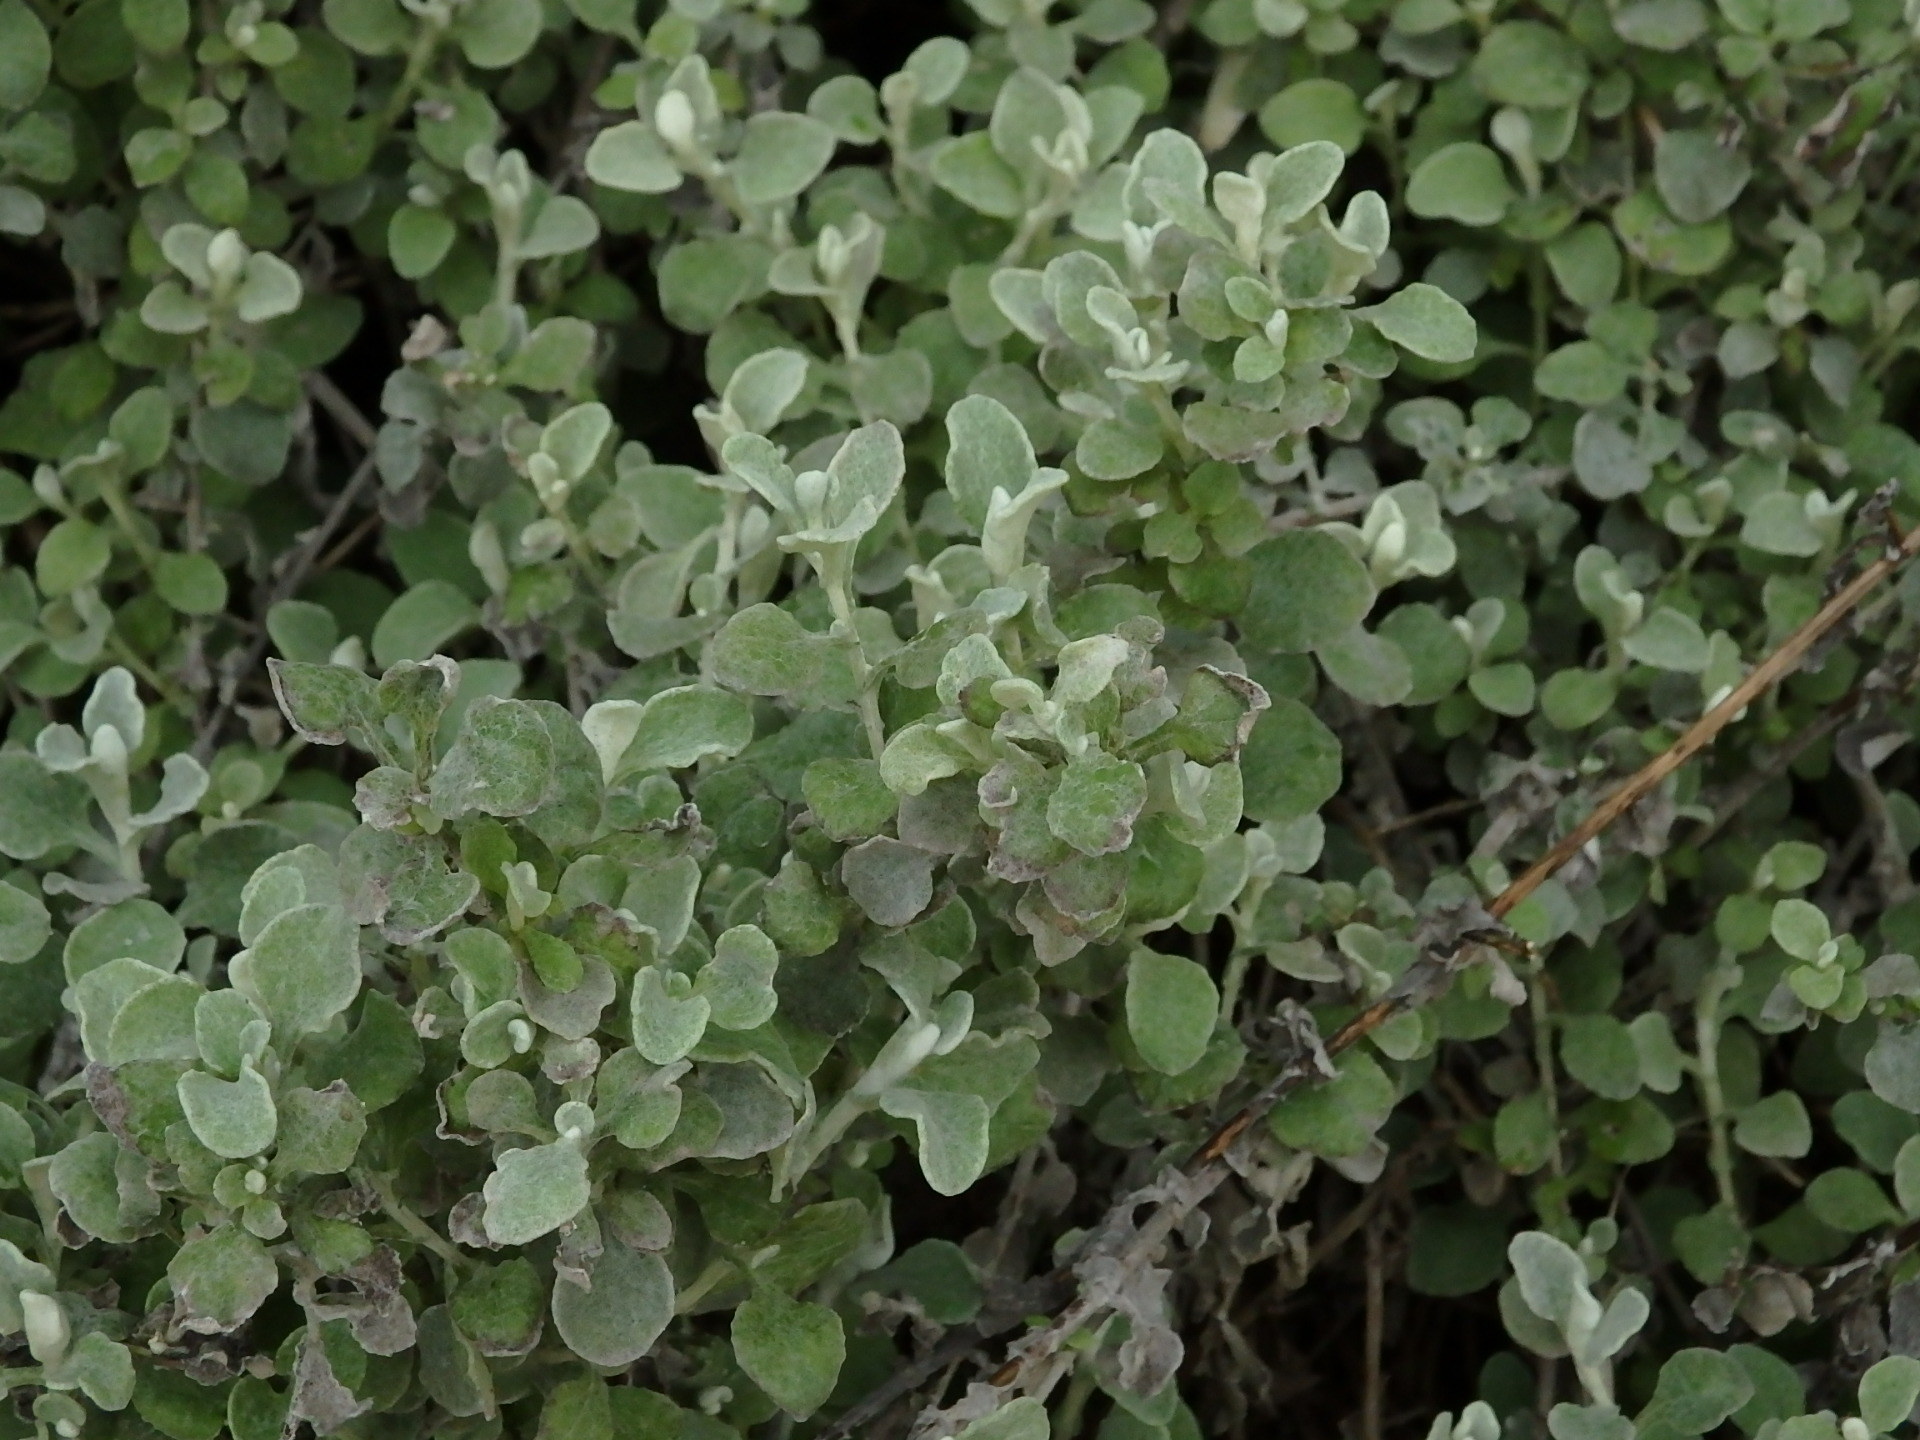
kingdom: Plantae
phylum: Tracheophyta
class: Magnoliopsida
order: Asterales
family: Asteraceae
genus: Helichrysum
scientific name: Helichrysum petiolare
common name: Licorice-plant
